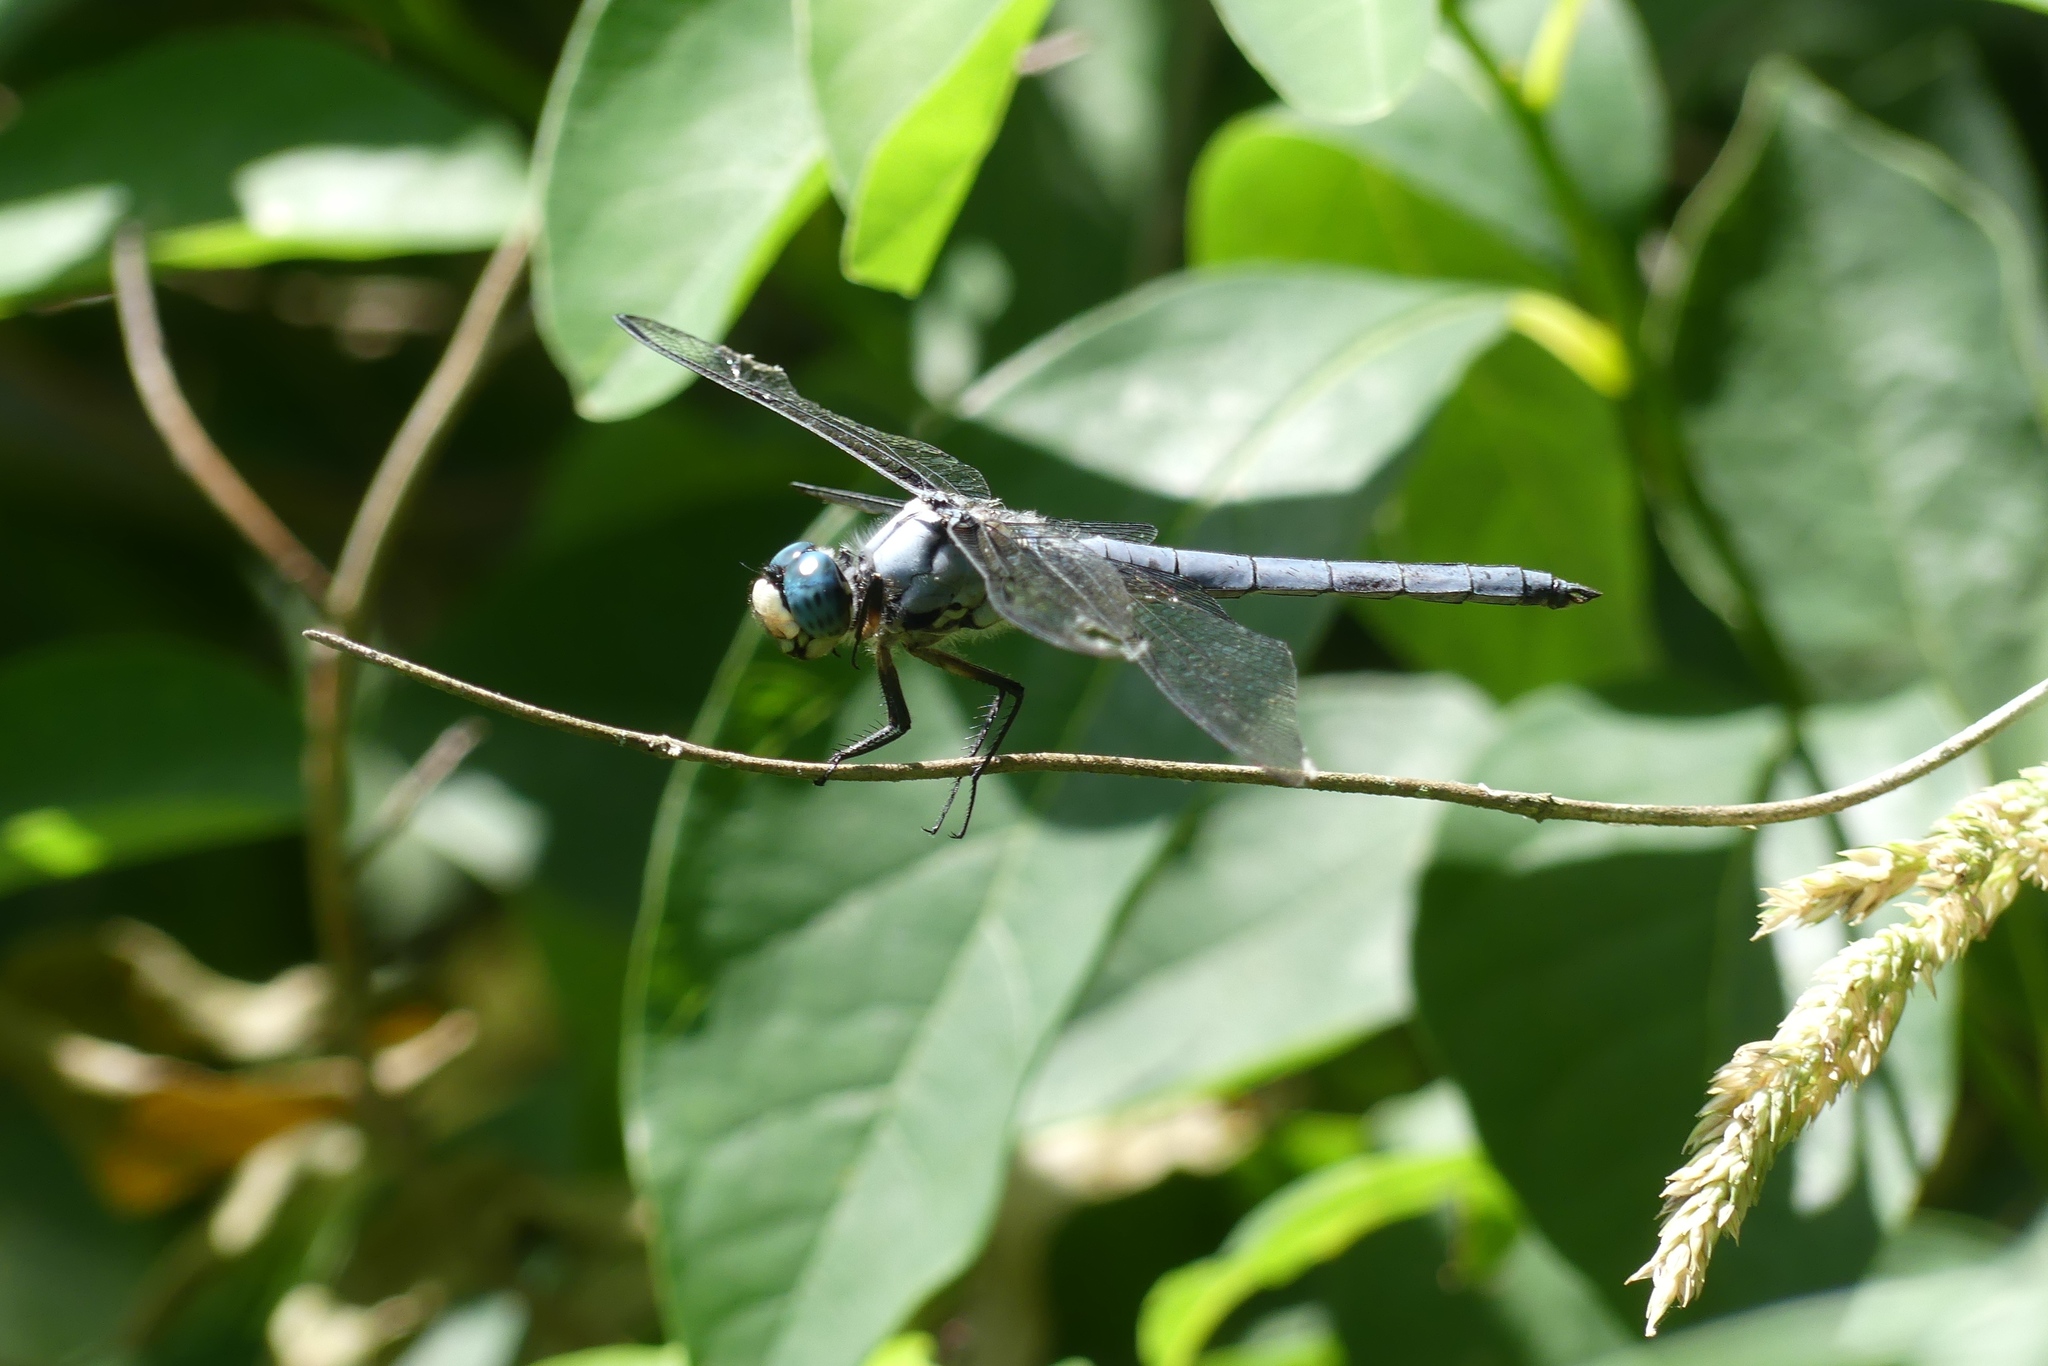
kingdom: Animalia
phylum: Arthropoda
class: Insecta
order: Odonata
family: Libellulidae
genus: Libellula
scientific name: Libellula vibrans
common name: Great blue skimmer
